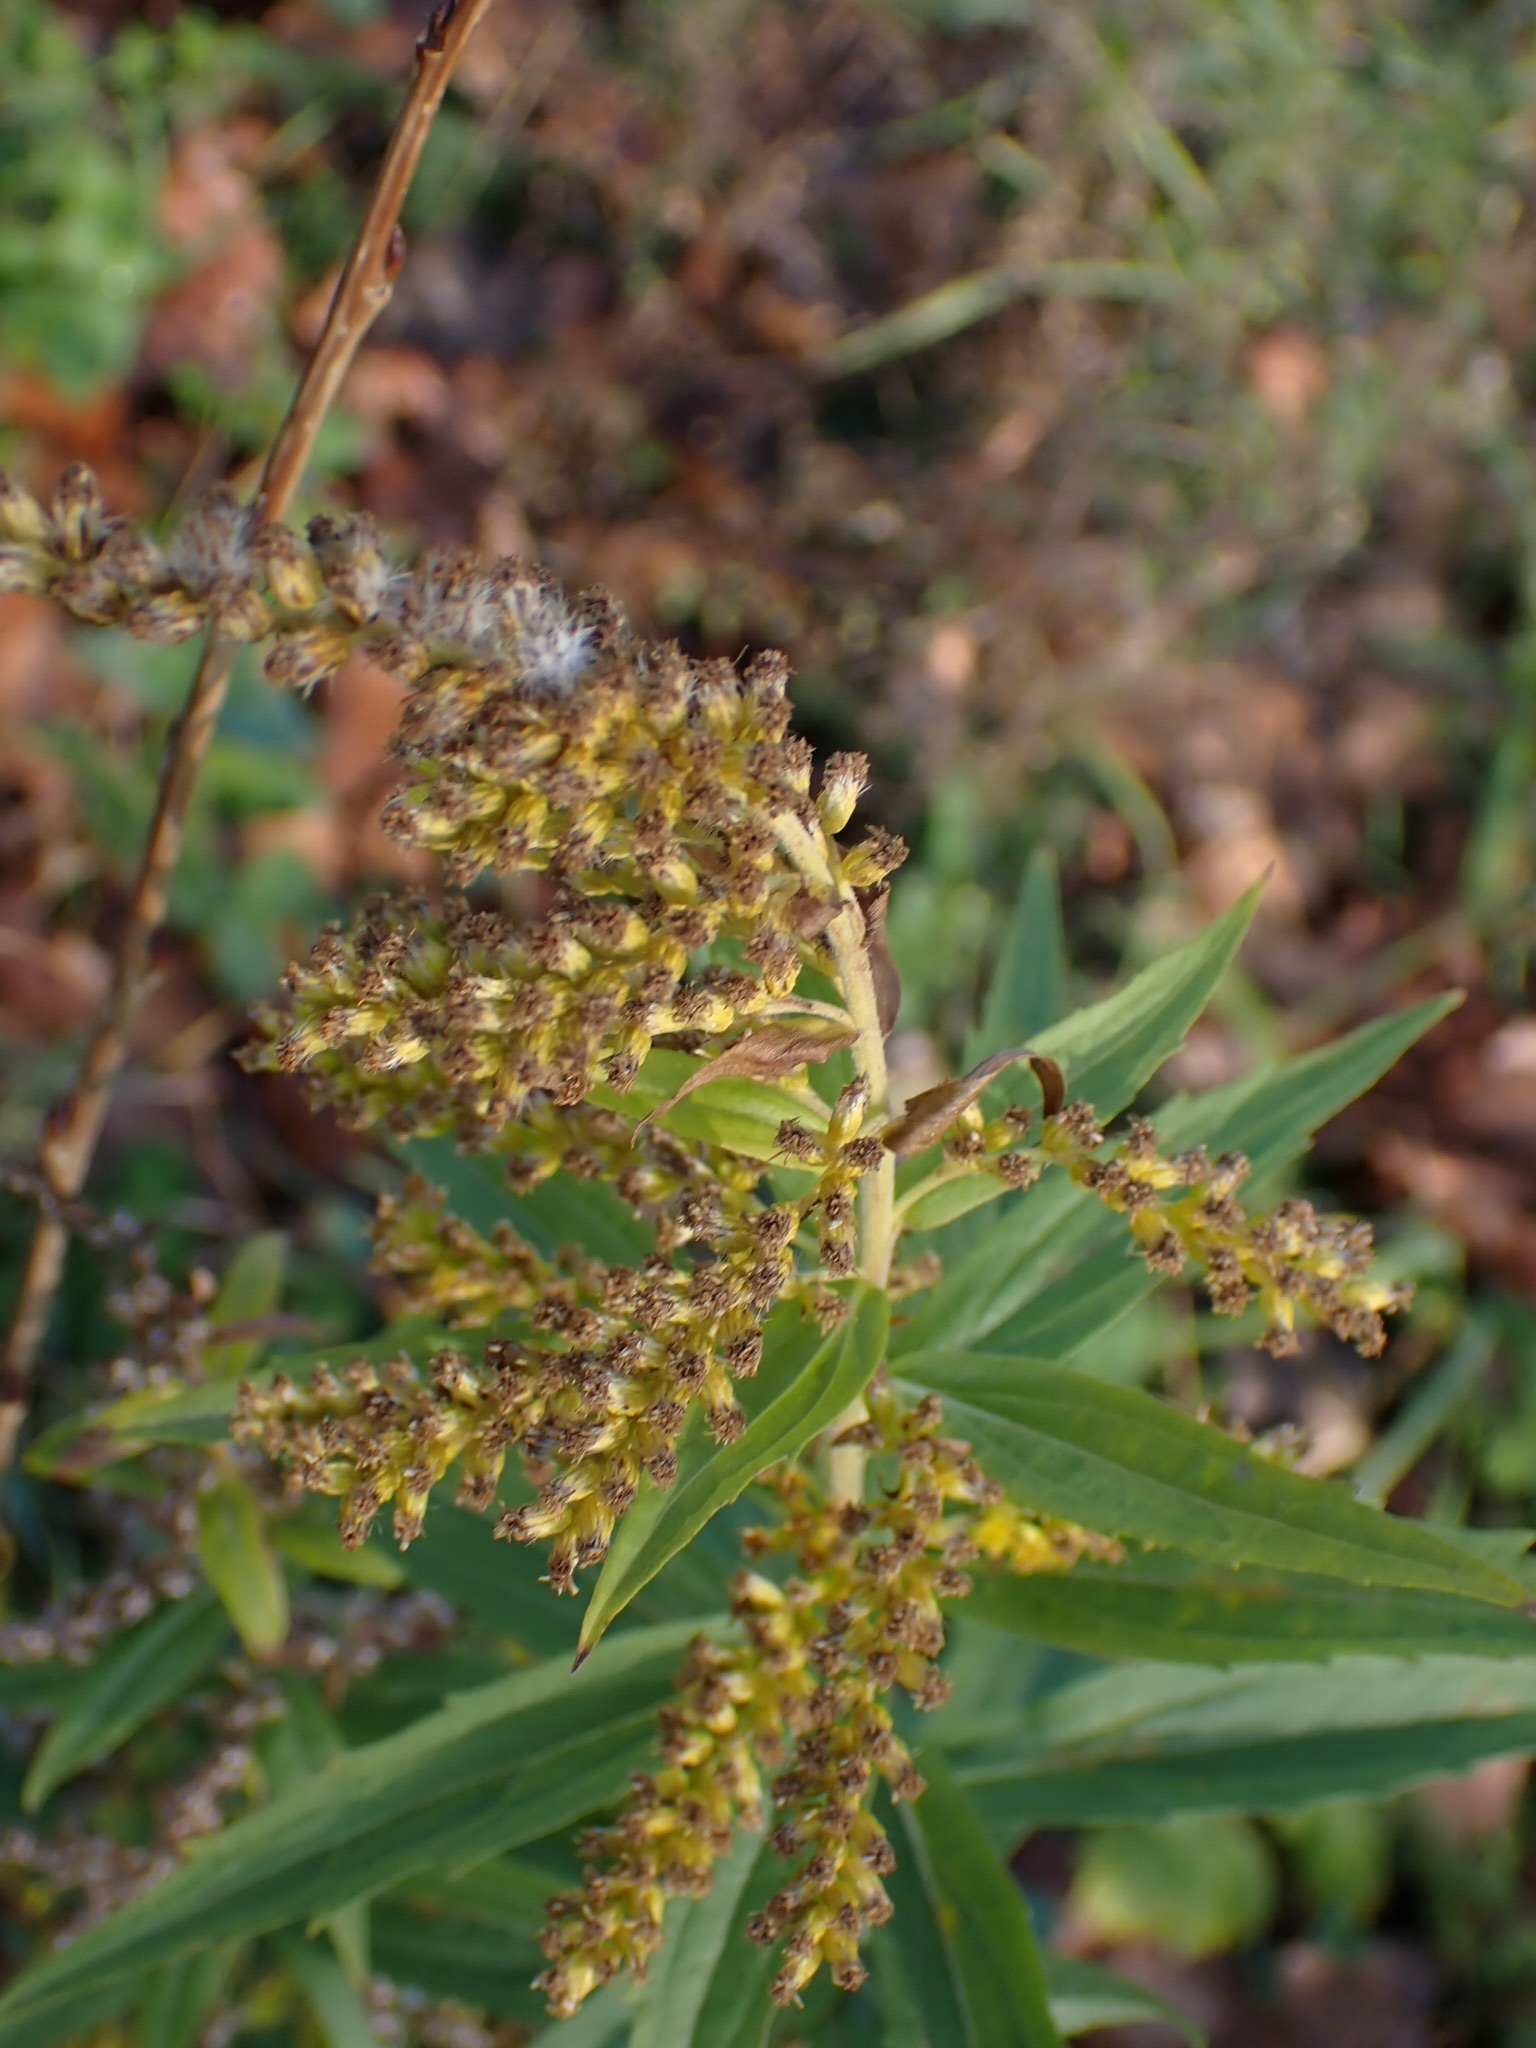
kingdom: Plantae
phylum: Tracheophyta
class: Magnoliopsida
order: Asterales
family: Asteraceae
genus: Solidago
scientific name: Solidago canadensis
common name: Canada goldenrod
